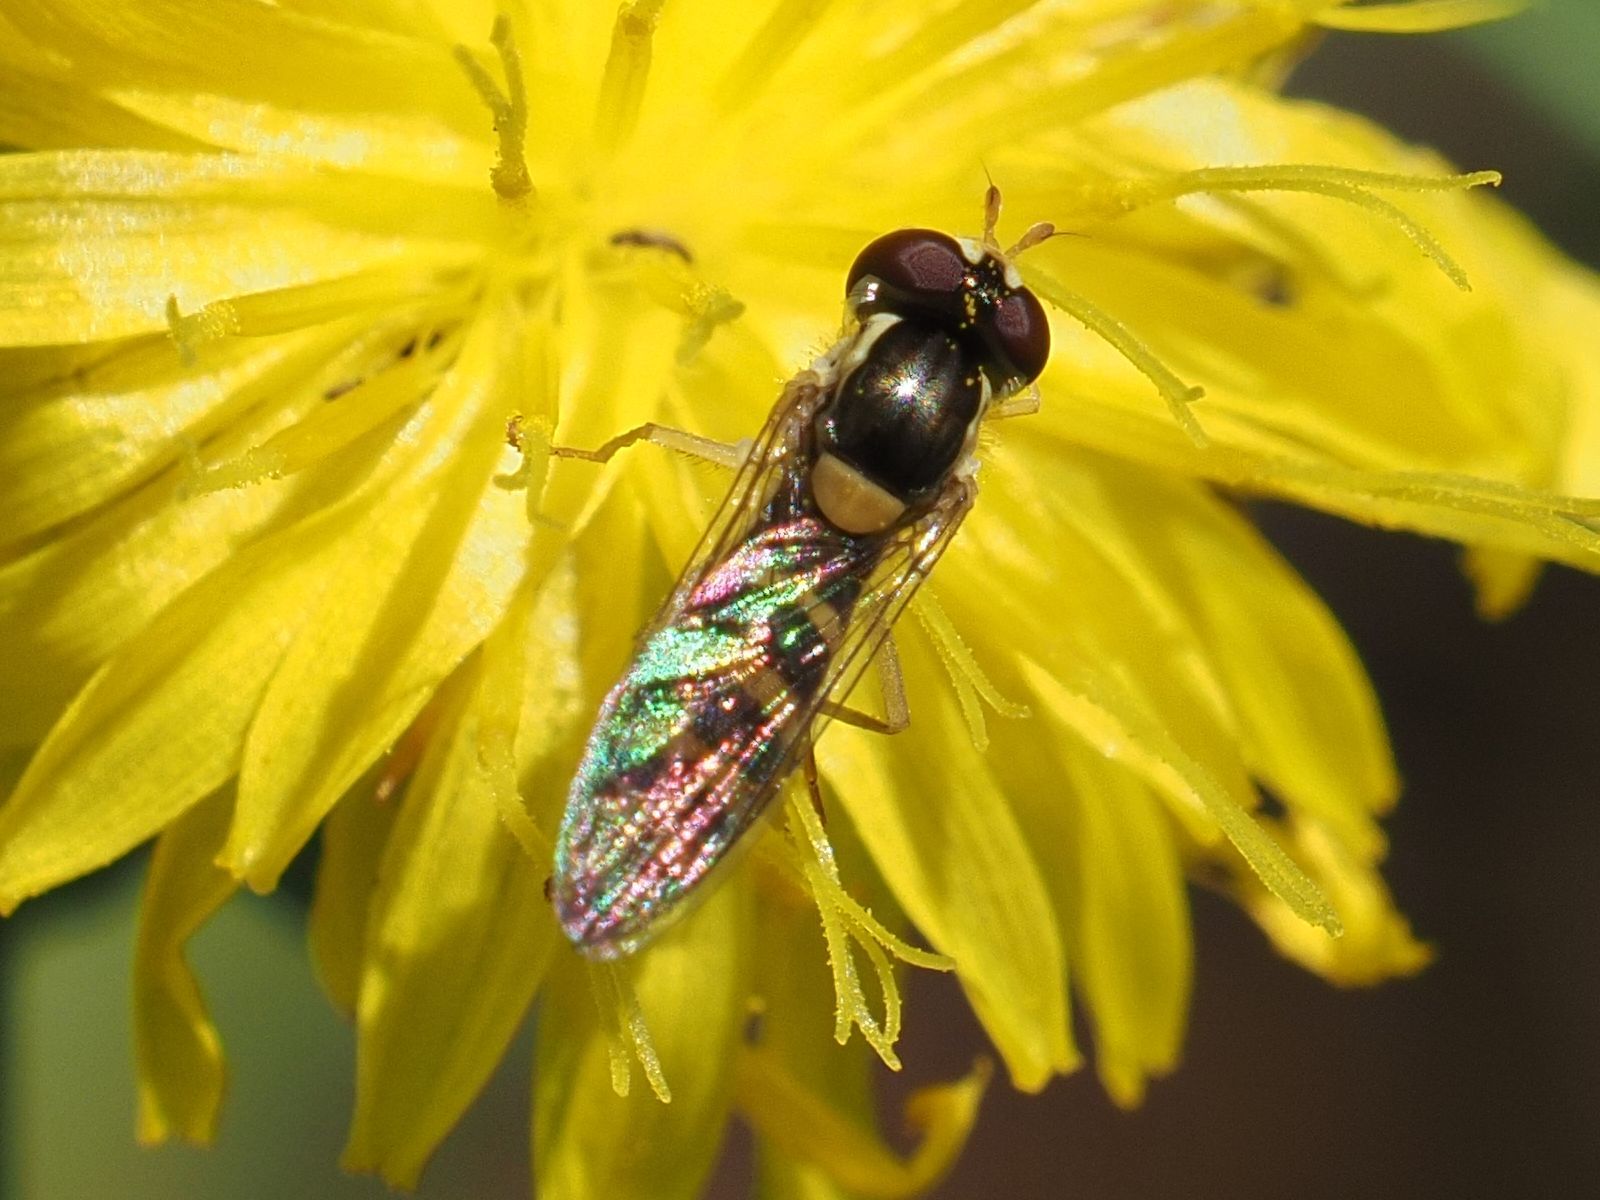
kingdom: Animalia
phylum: Arthropoda
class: Insecta
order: Diptera
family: Syrphidae
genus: Sphaerophoria
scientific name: Sphaerophoria
